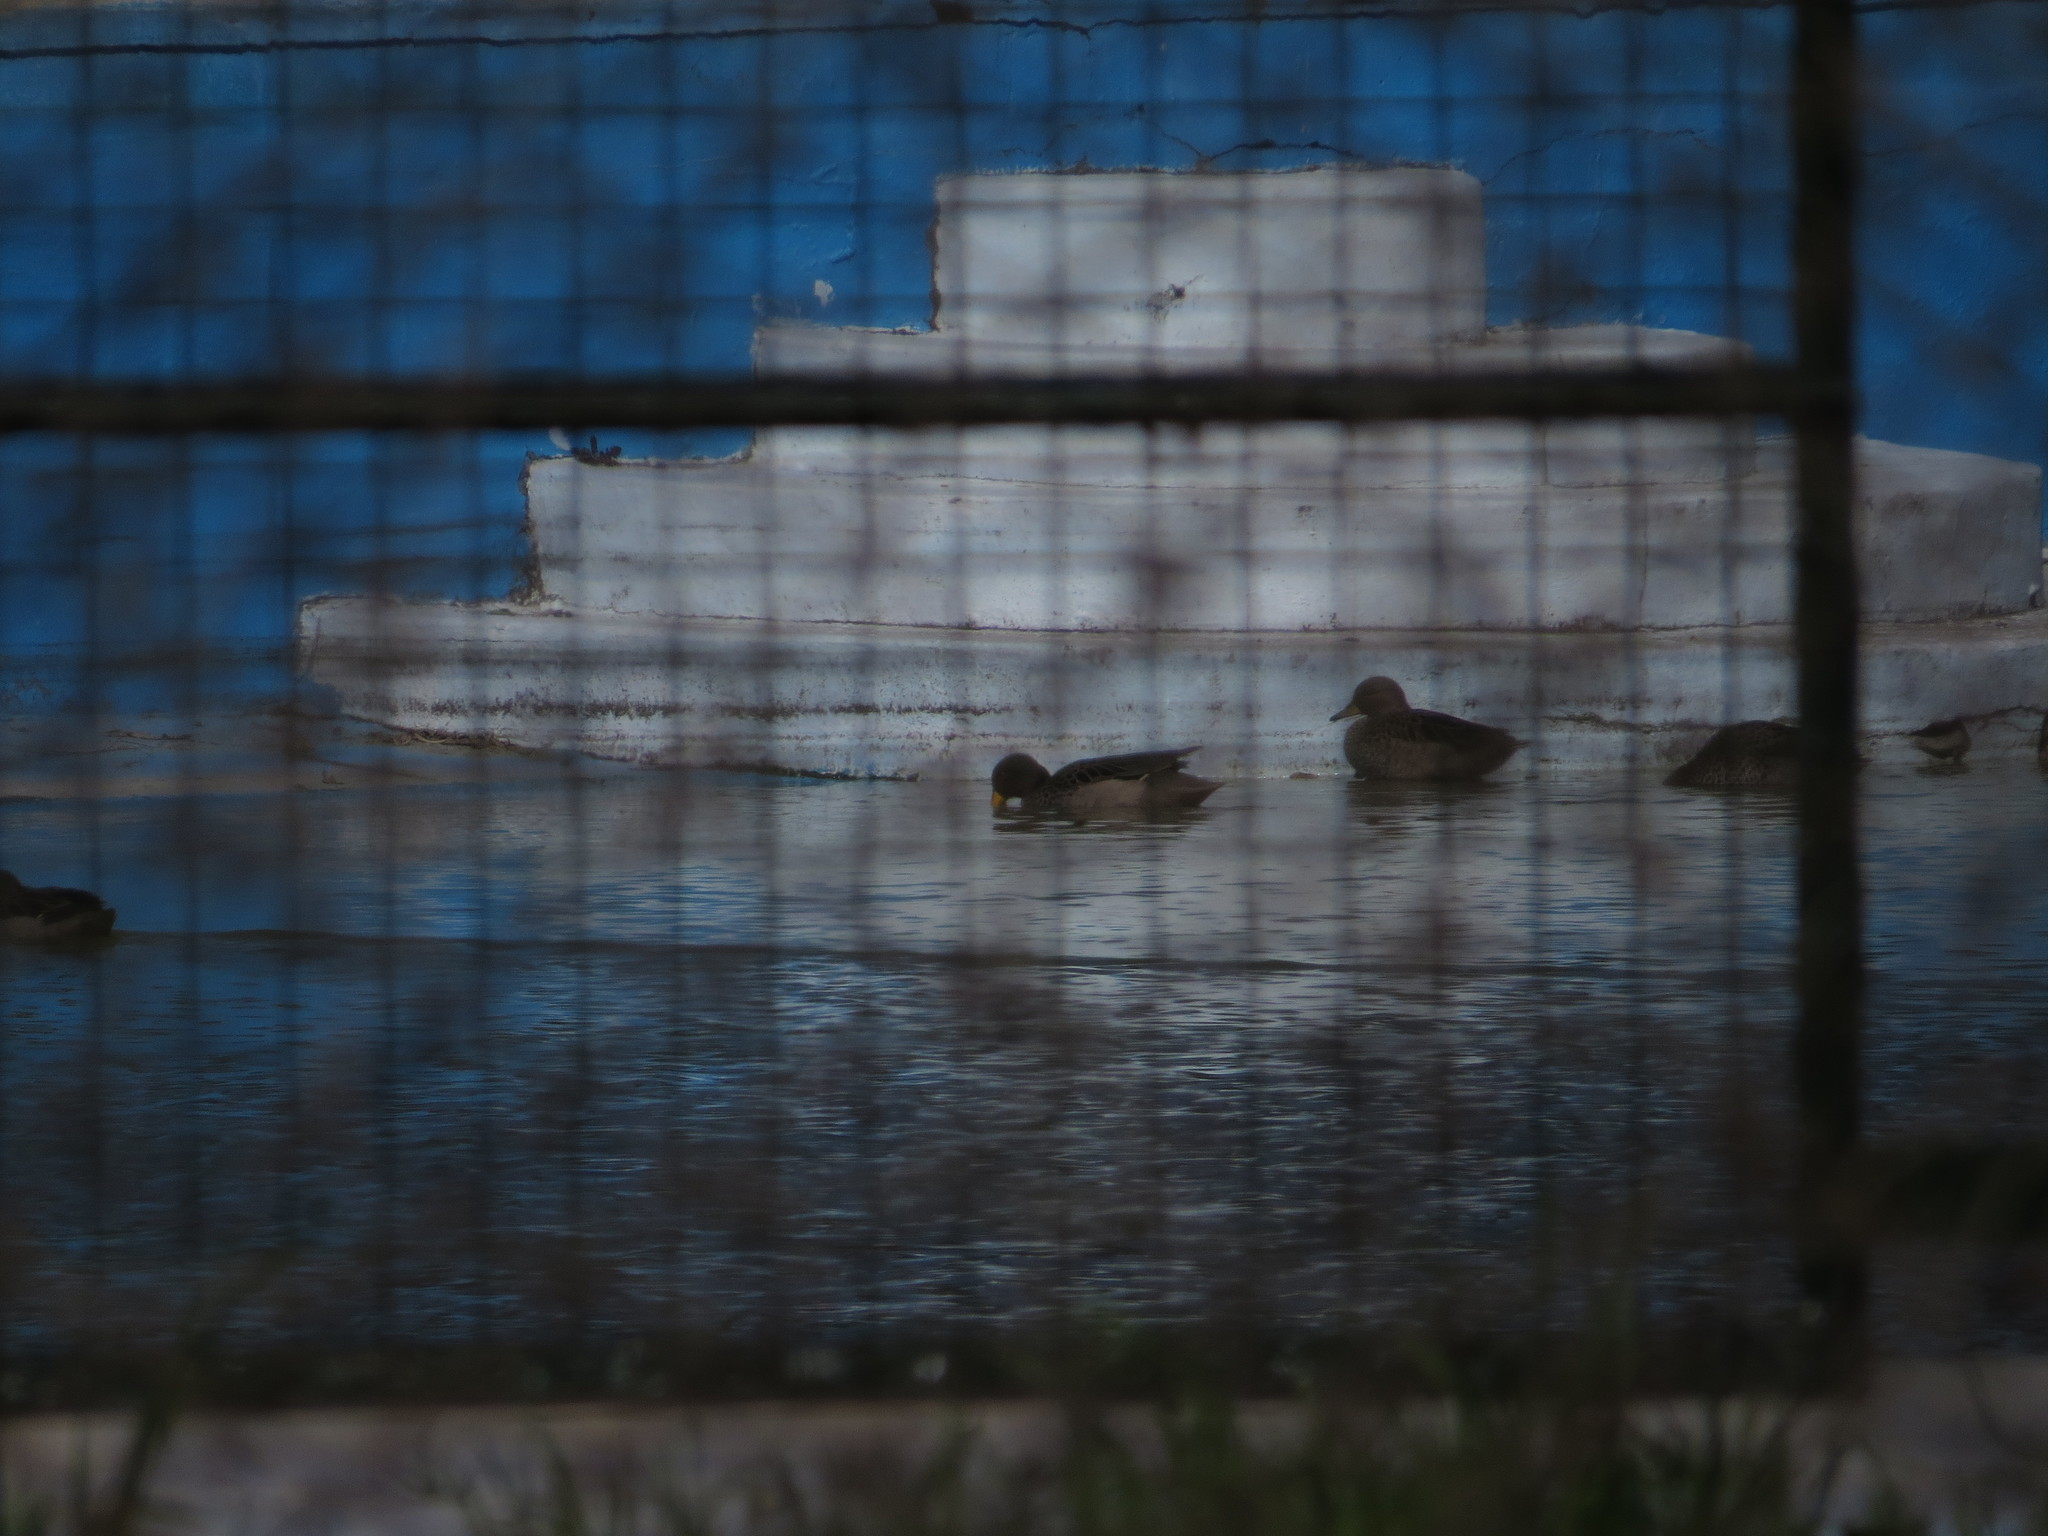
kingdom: Animalia
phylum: Chordata
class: Aves
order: Anseriformes
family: Anatidae
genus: Anas
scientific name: Anas flavirostris
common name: Yellow-billed teal
